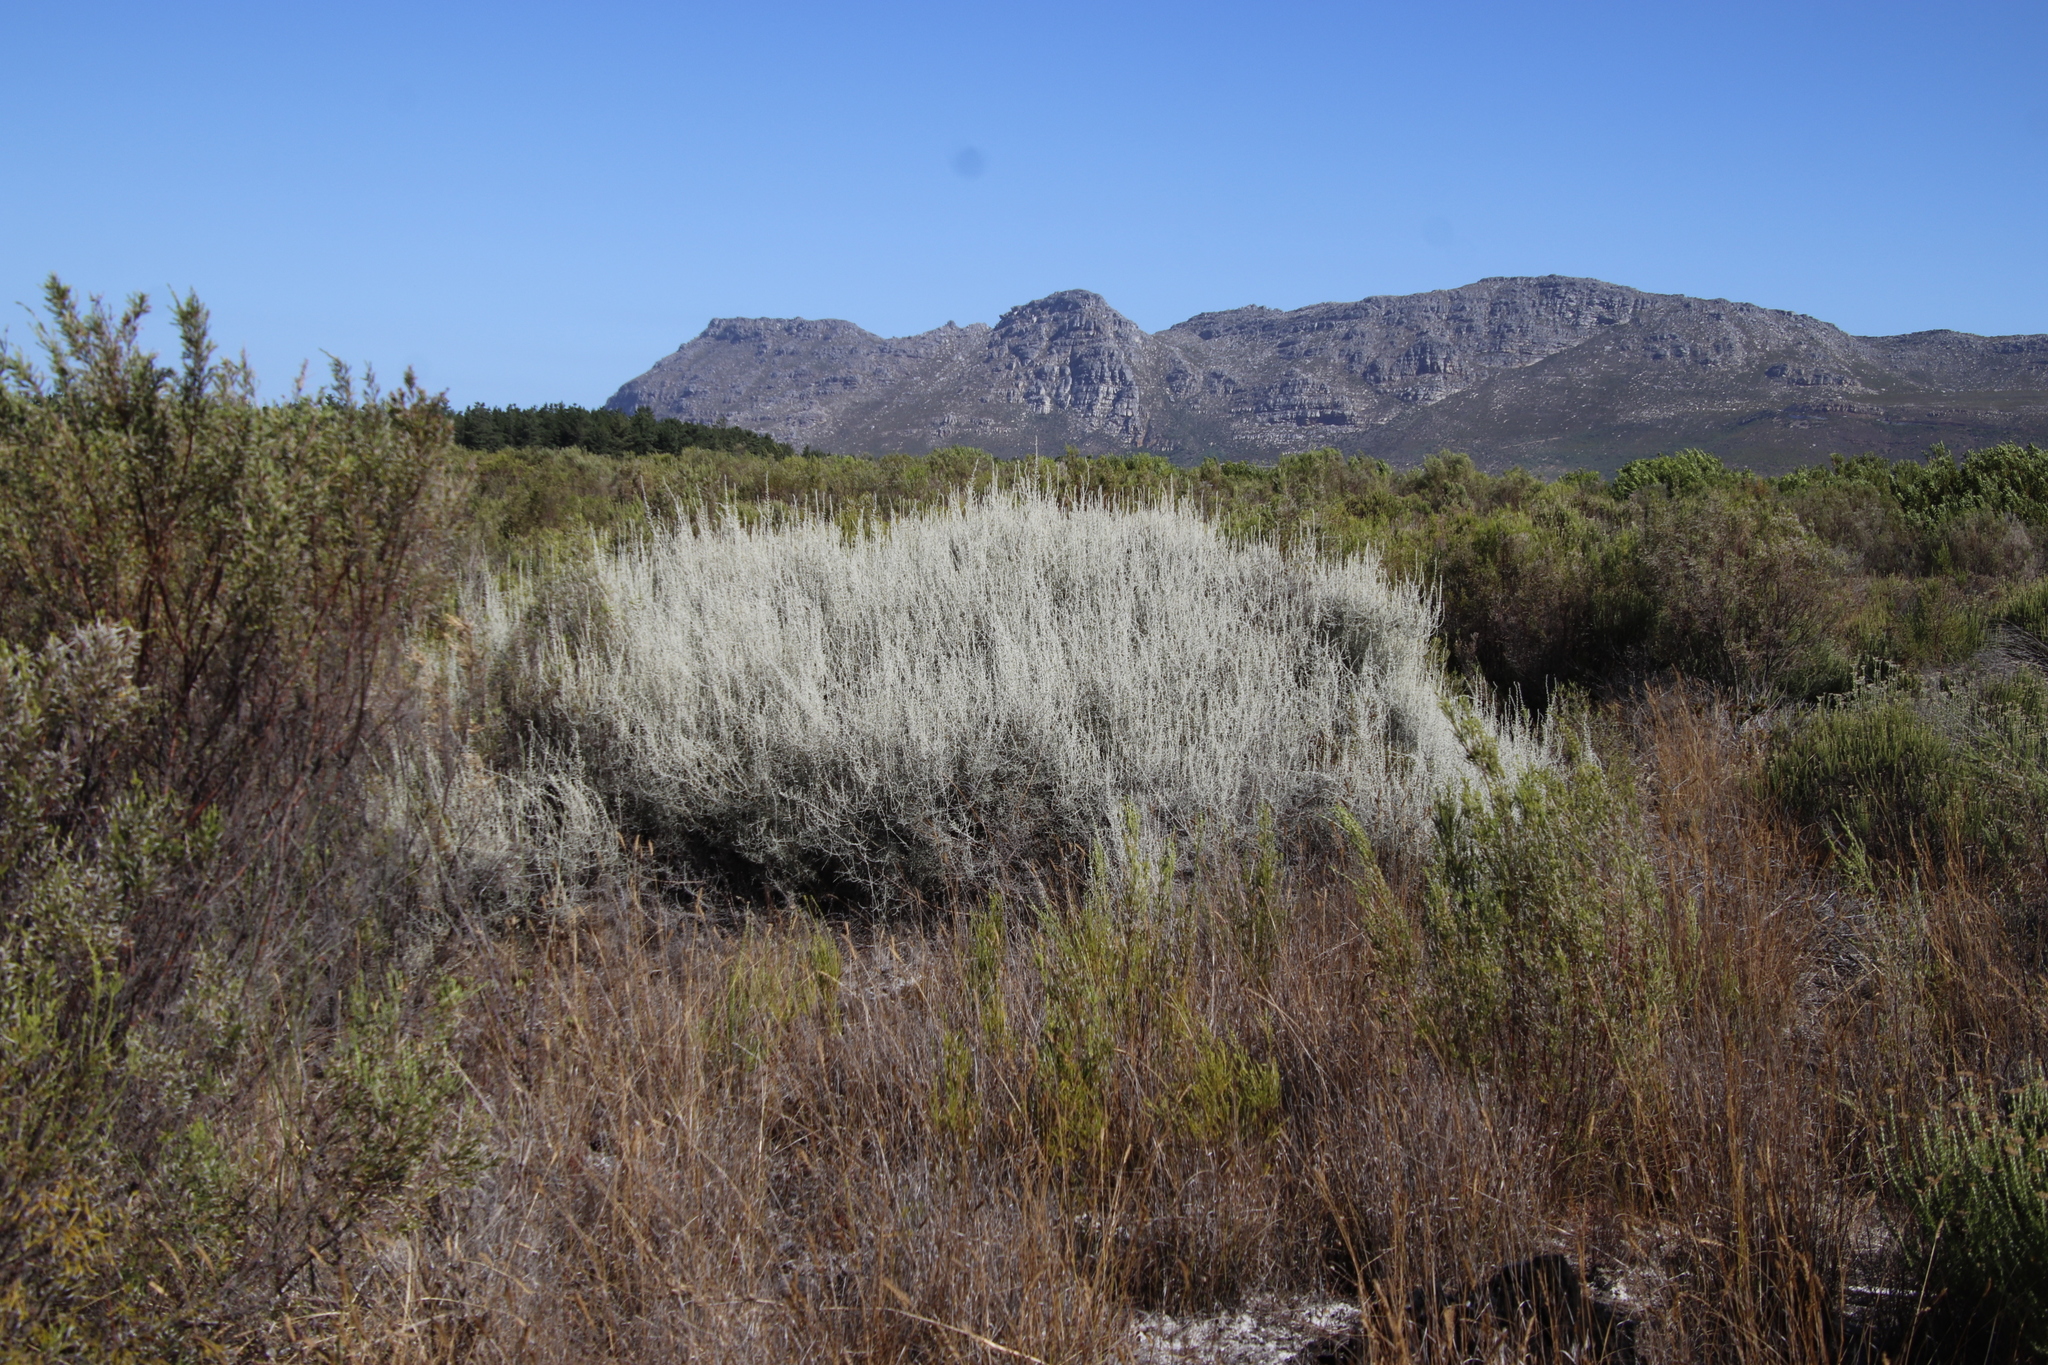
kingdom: Plantae
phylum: Tracheophyta
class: Magnoliopsida
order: Asterales
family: Asteraceae
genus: Seriphium
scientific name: Seriphium plumosum
